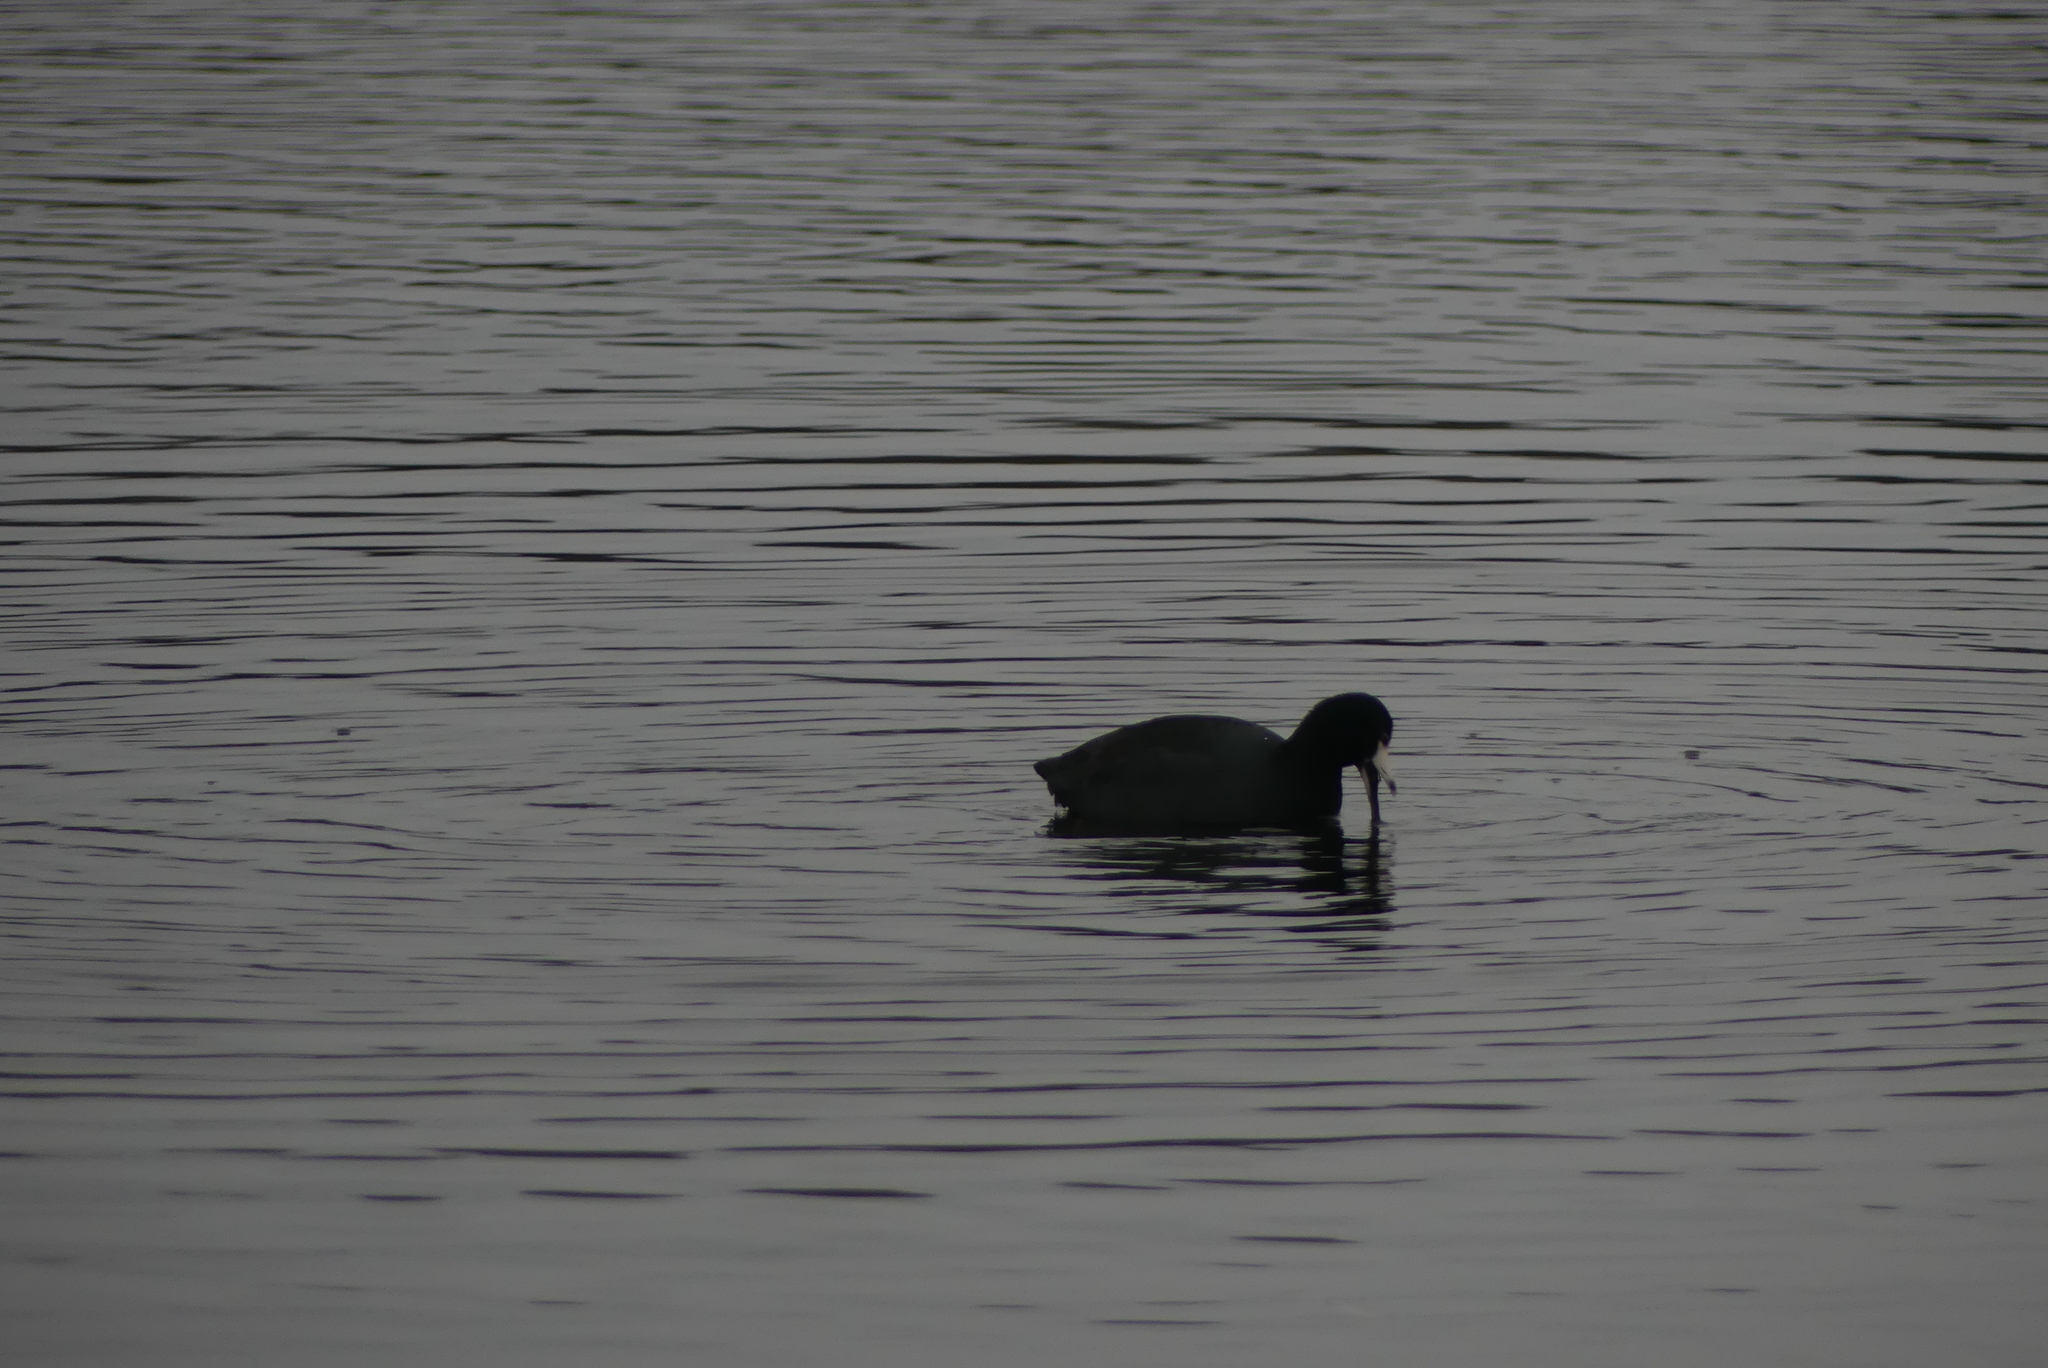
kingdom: Animalia
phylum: Chordata
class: Aves
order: Gruiformes
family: Rallidae
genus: Fulica
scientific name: Fulica americana
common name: American coot
